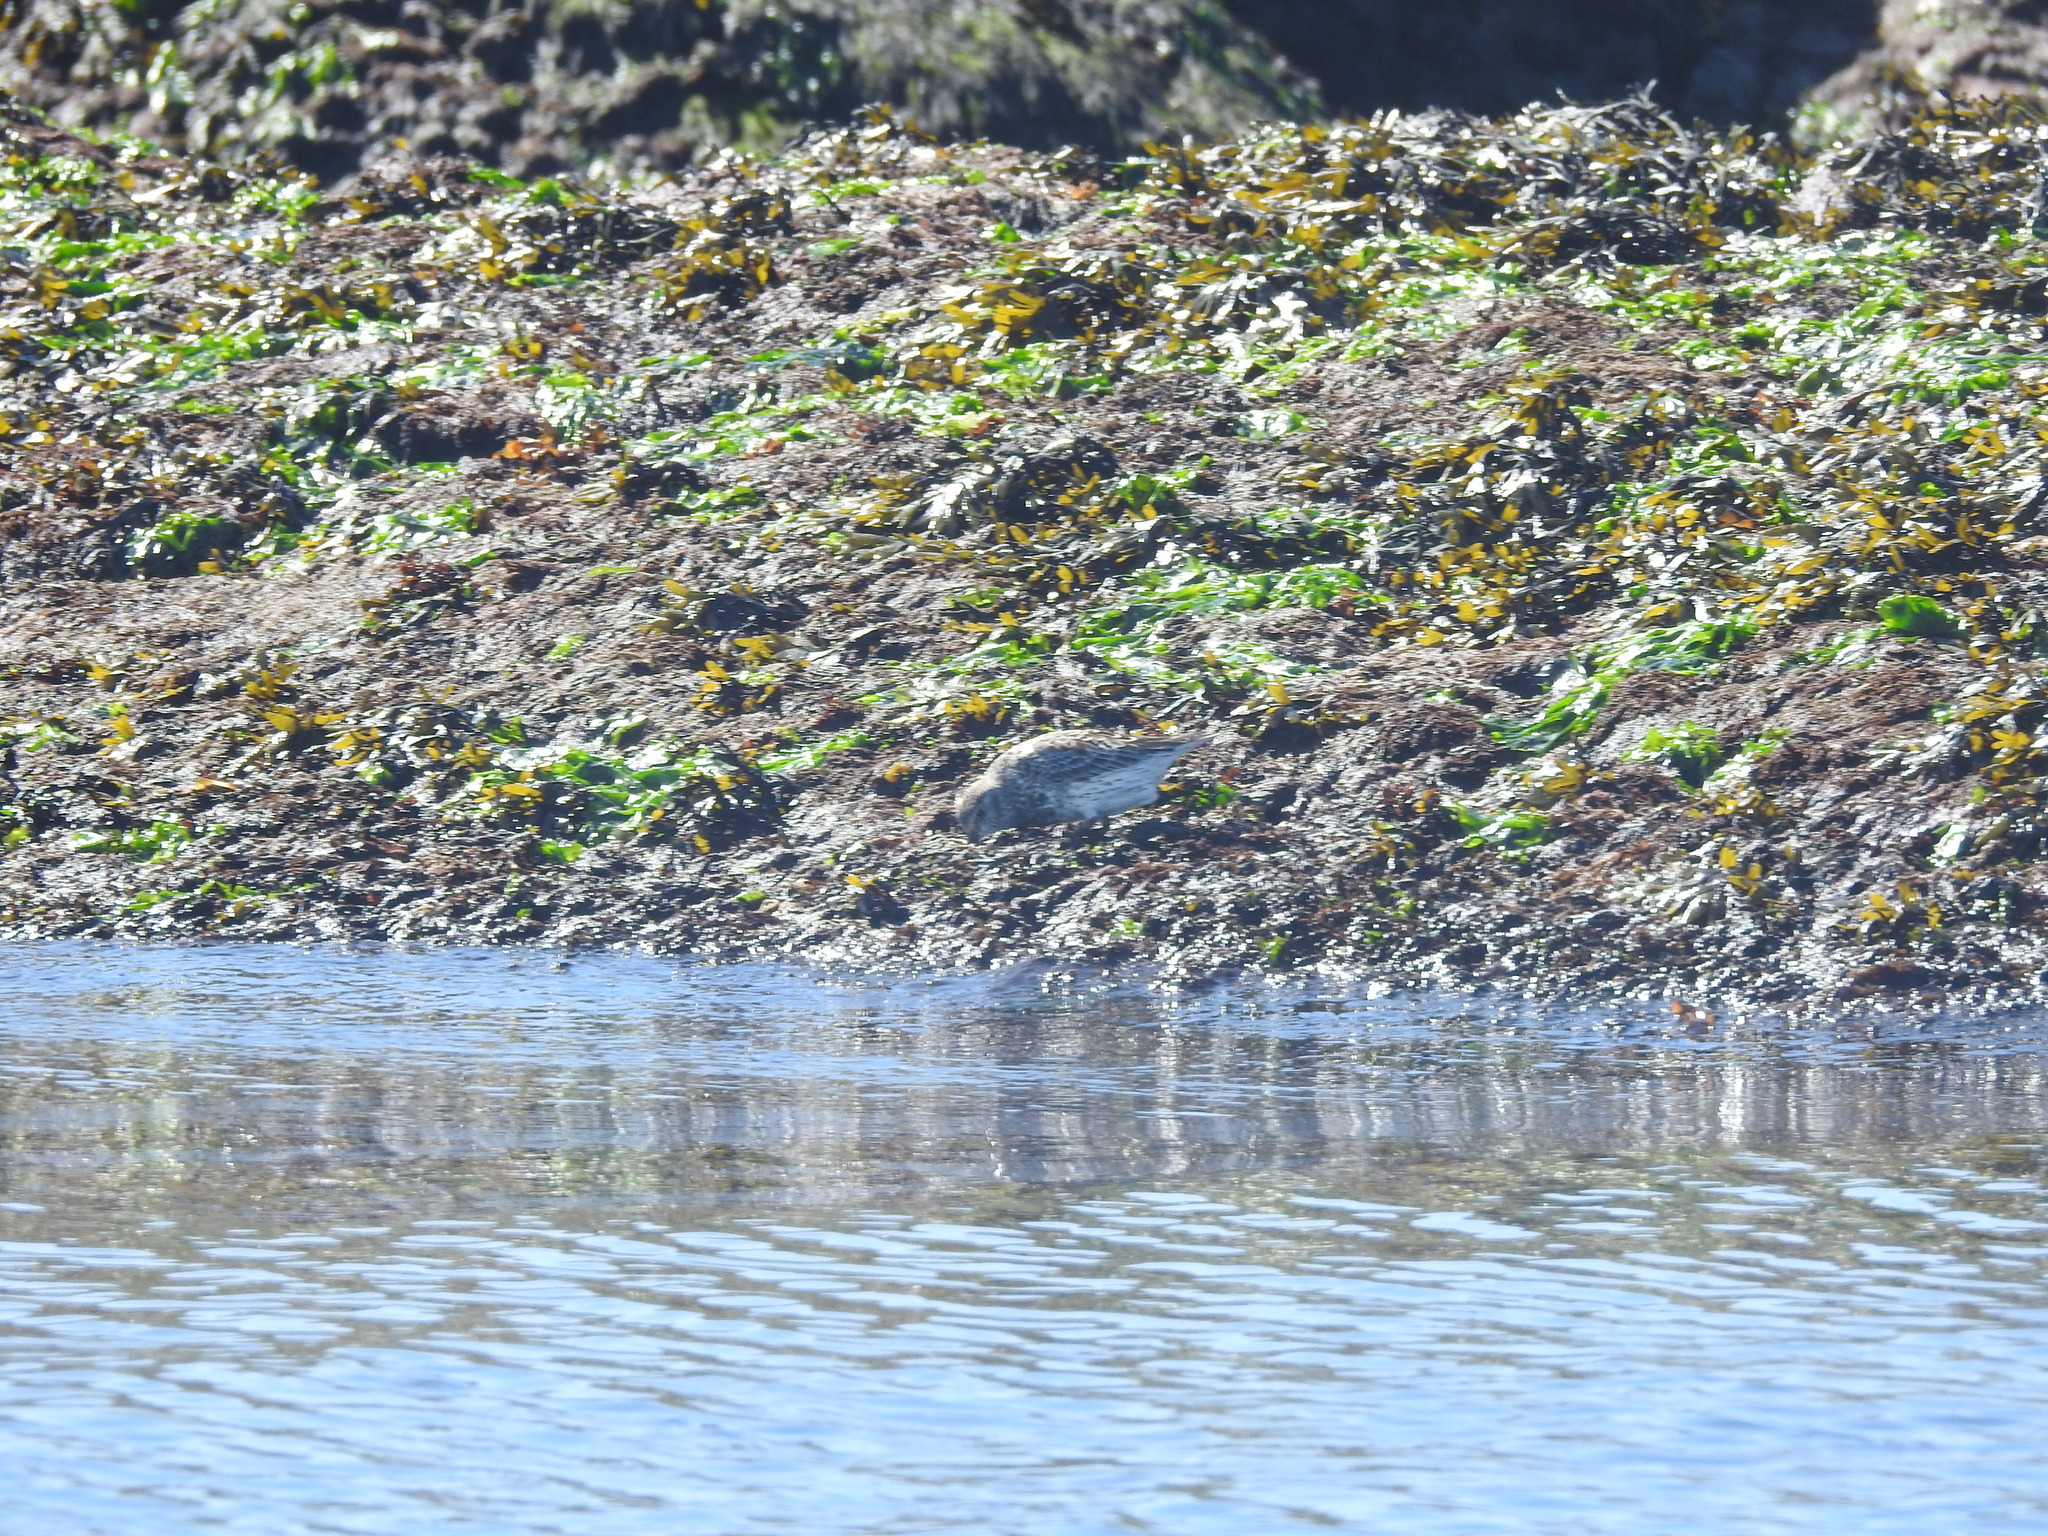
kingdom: Animalia
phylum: Chordata
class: Aves
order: Charadriiformes
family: Scolopacidae
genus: Calidris
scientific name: Calidris ptilocnemis
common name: Rock sandpiper
